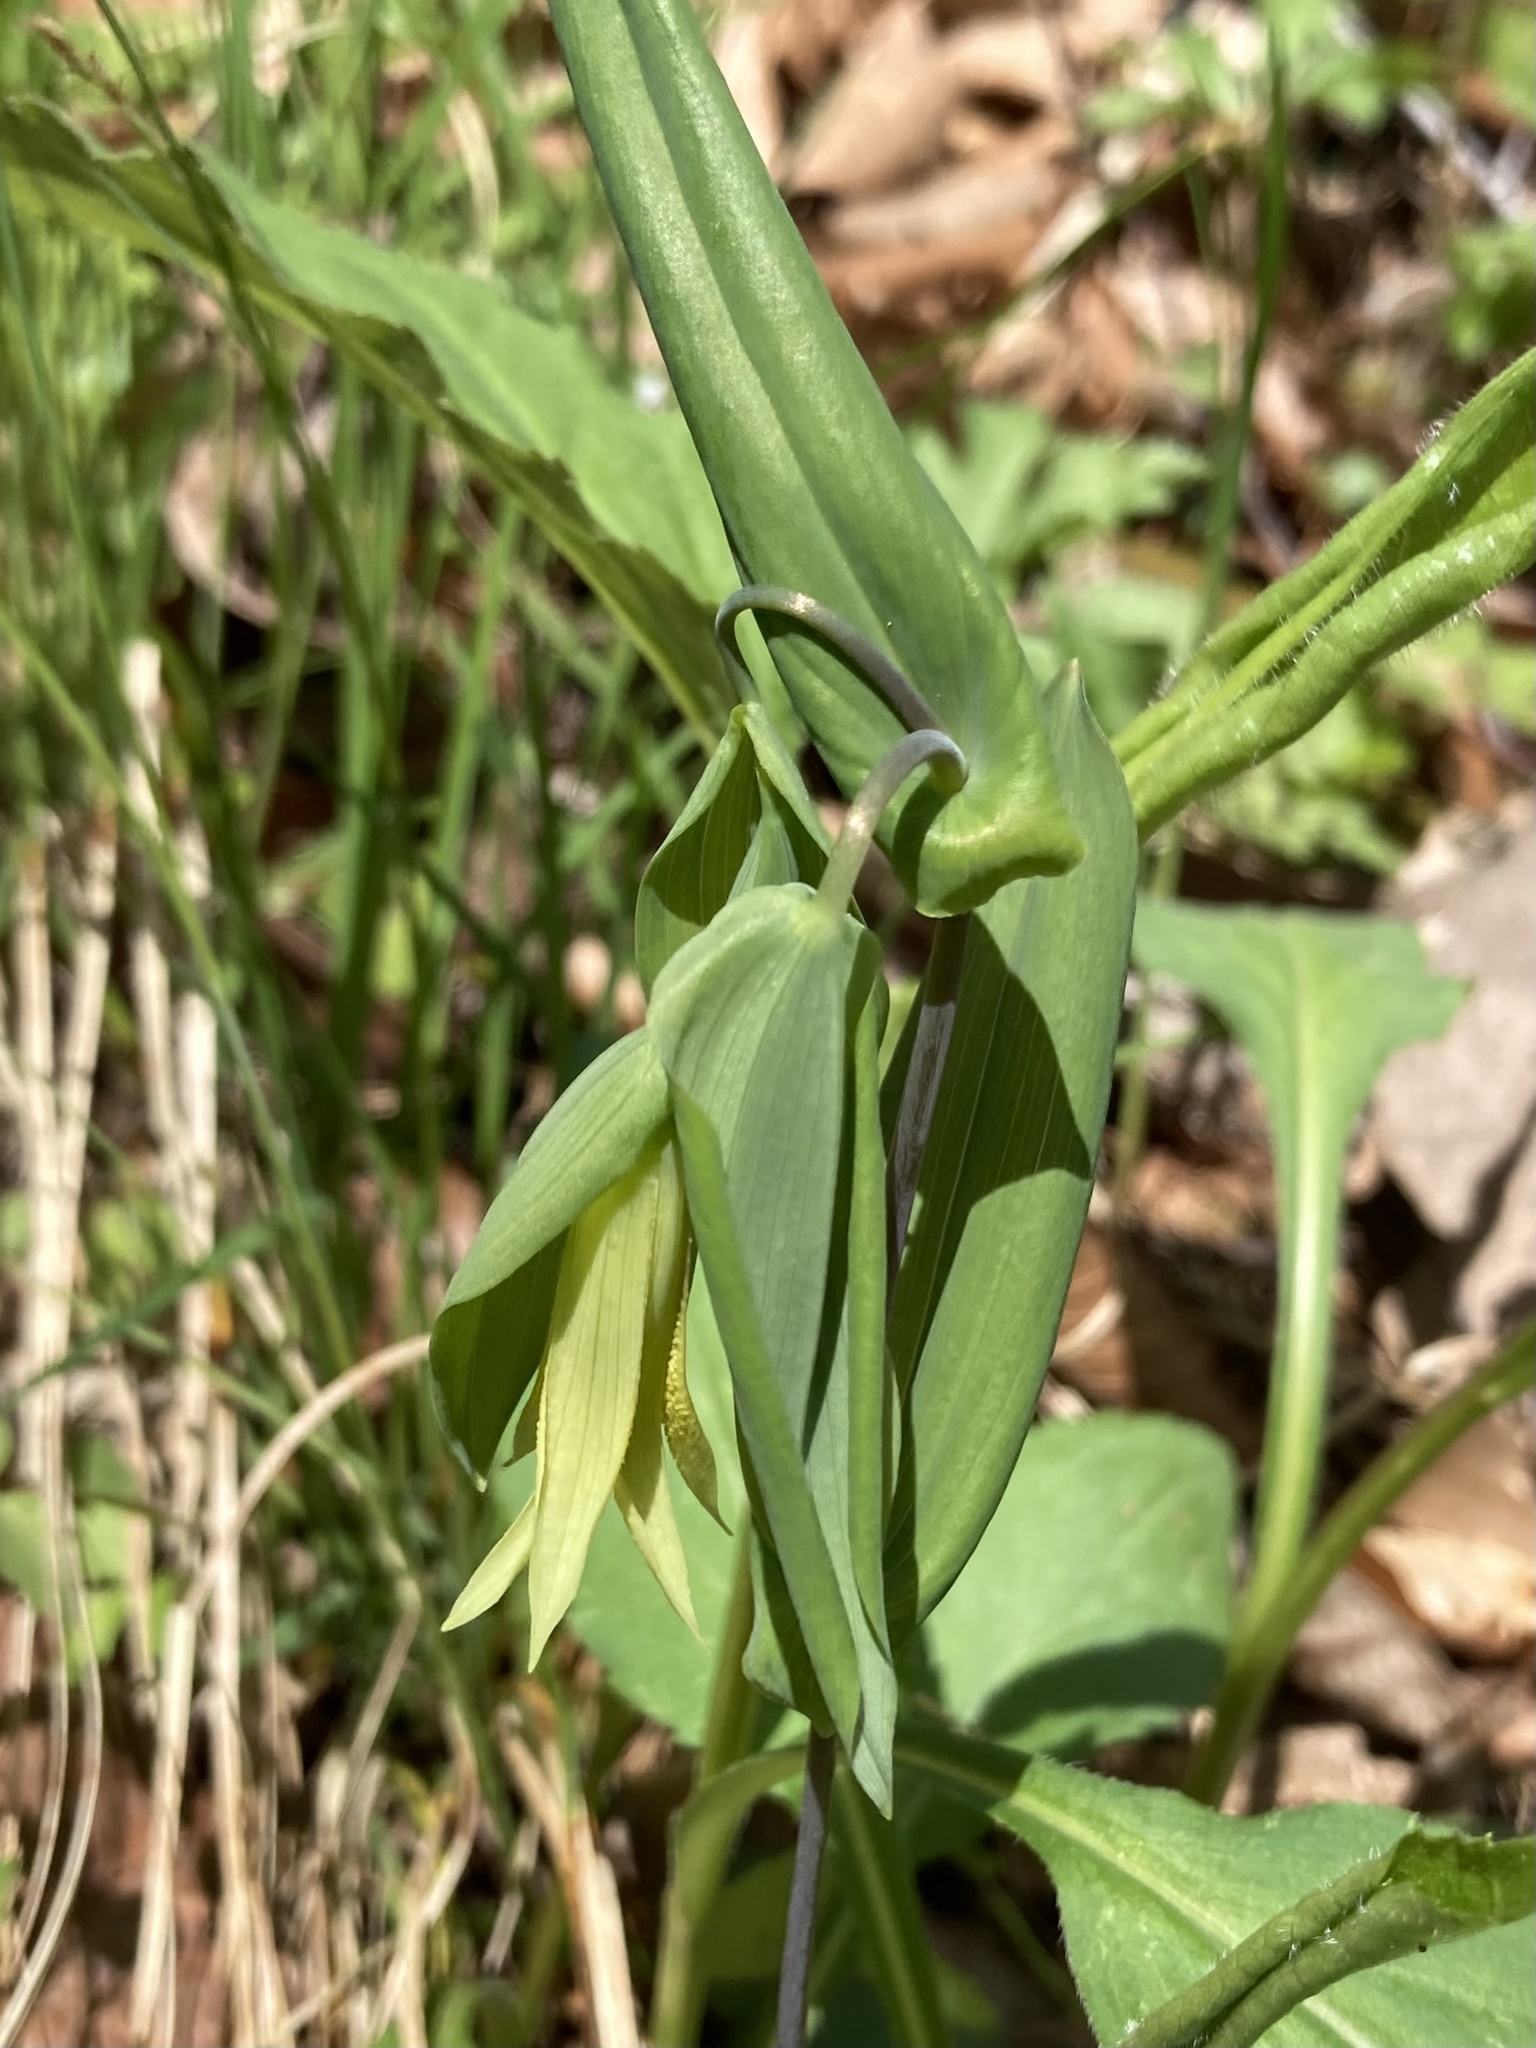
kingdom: Plantae
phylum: Tracheophyta
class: Liliopsida
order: Liliales
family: Colchicaceae
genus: Uvularia
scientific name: Uvularia perfoliata
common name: Perfoliate bellwort
